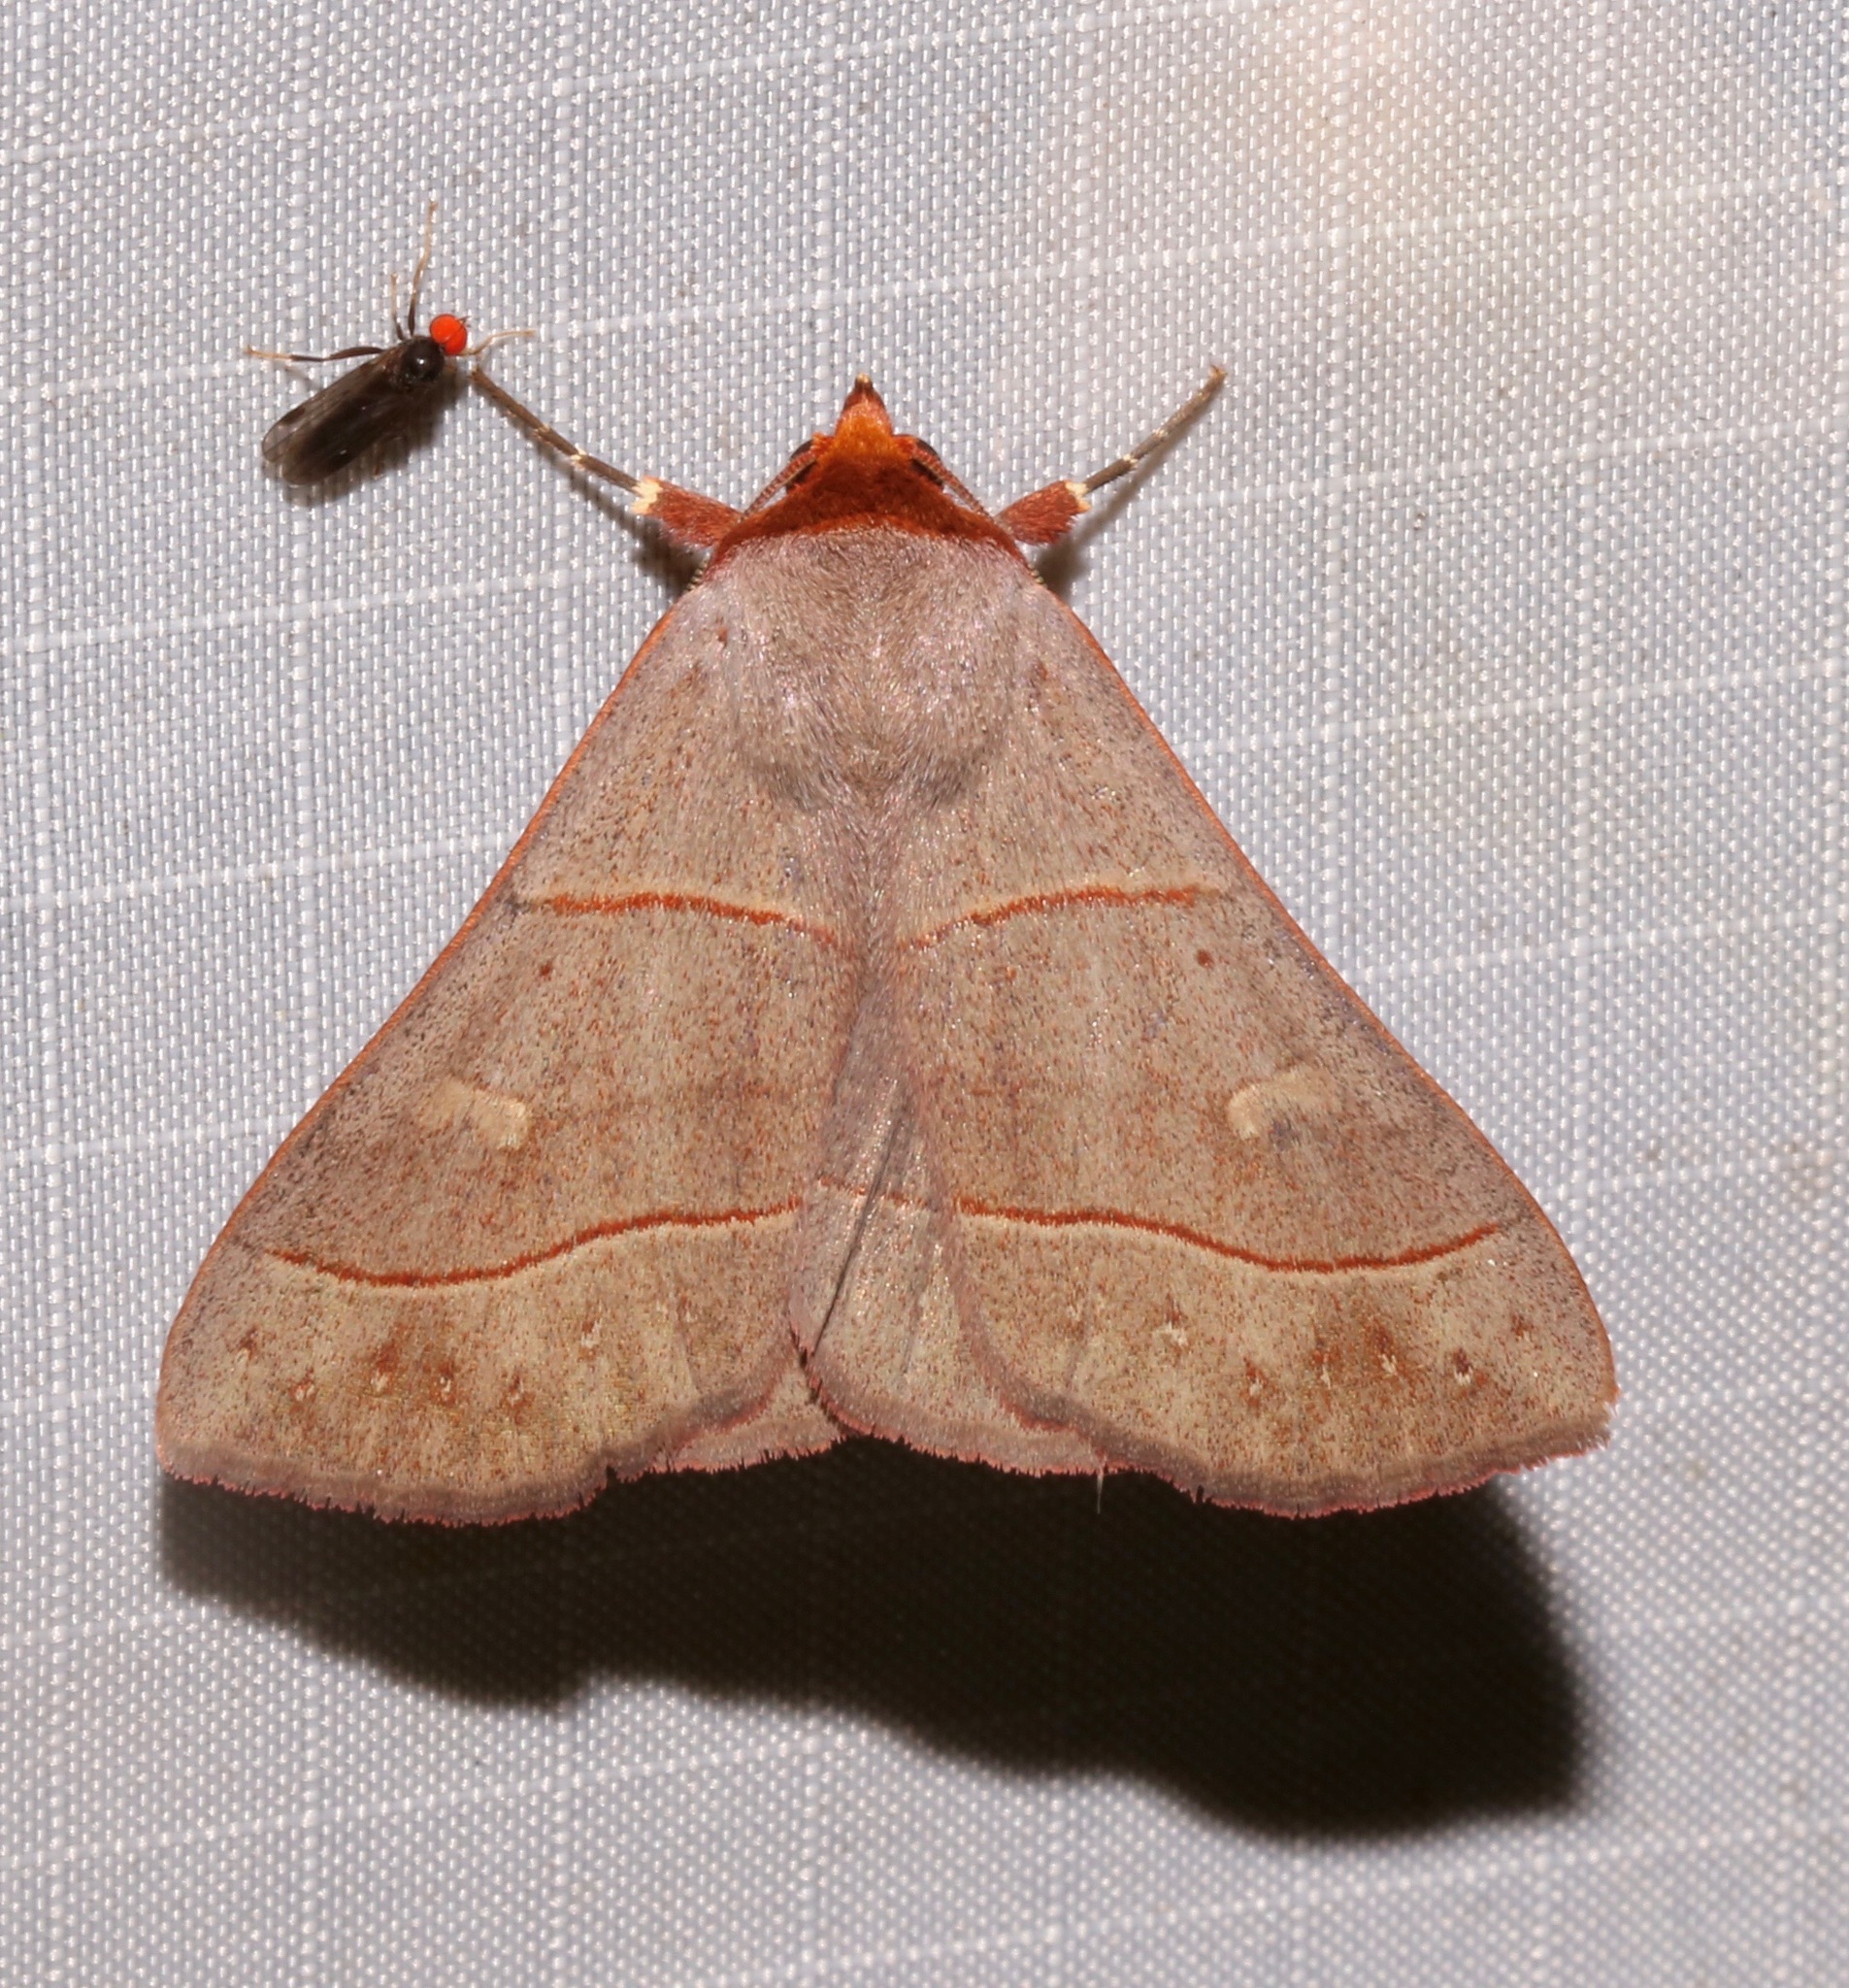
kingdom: Animalia
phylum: Arthropoda
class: Insecta
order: Lepidoptera
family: Erebidae
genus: Panopoda
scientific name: Panopoda rufimargo
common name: Red-lined panopoda moth
